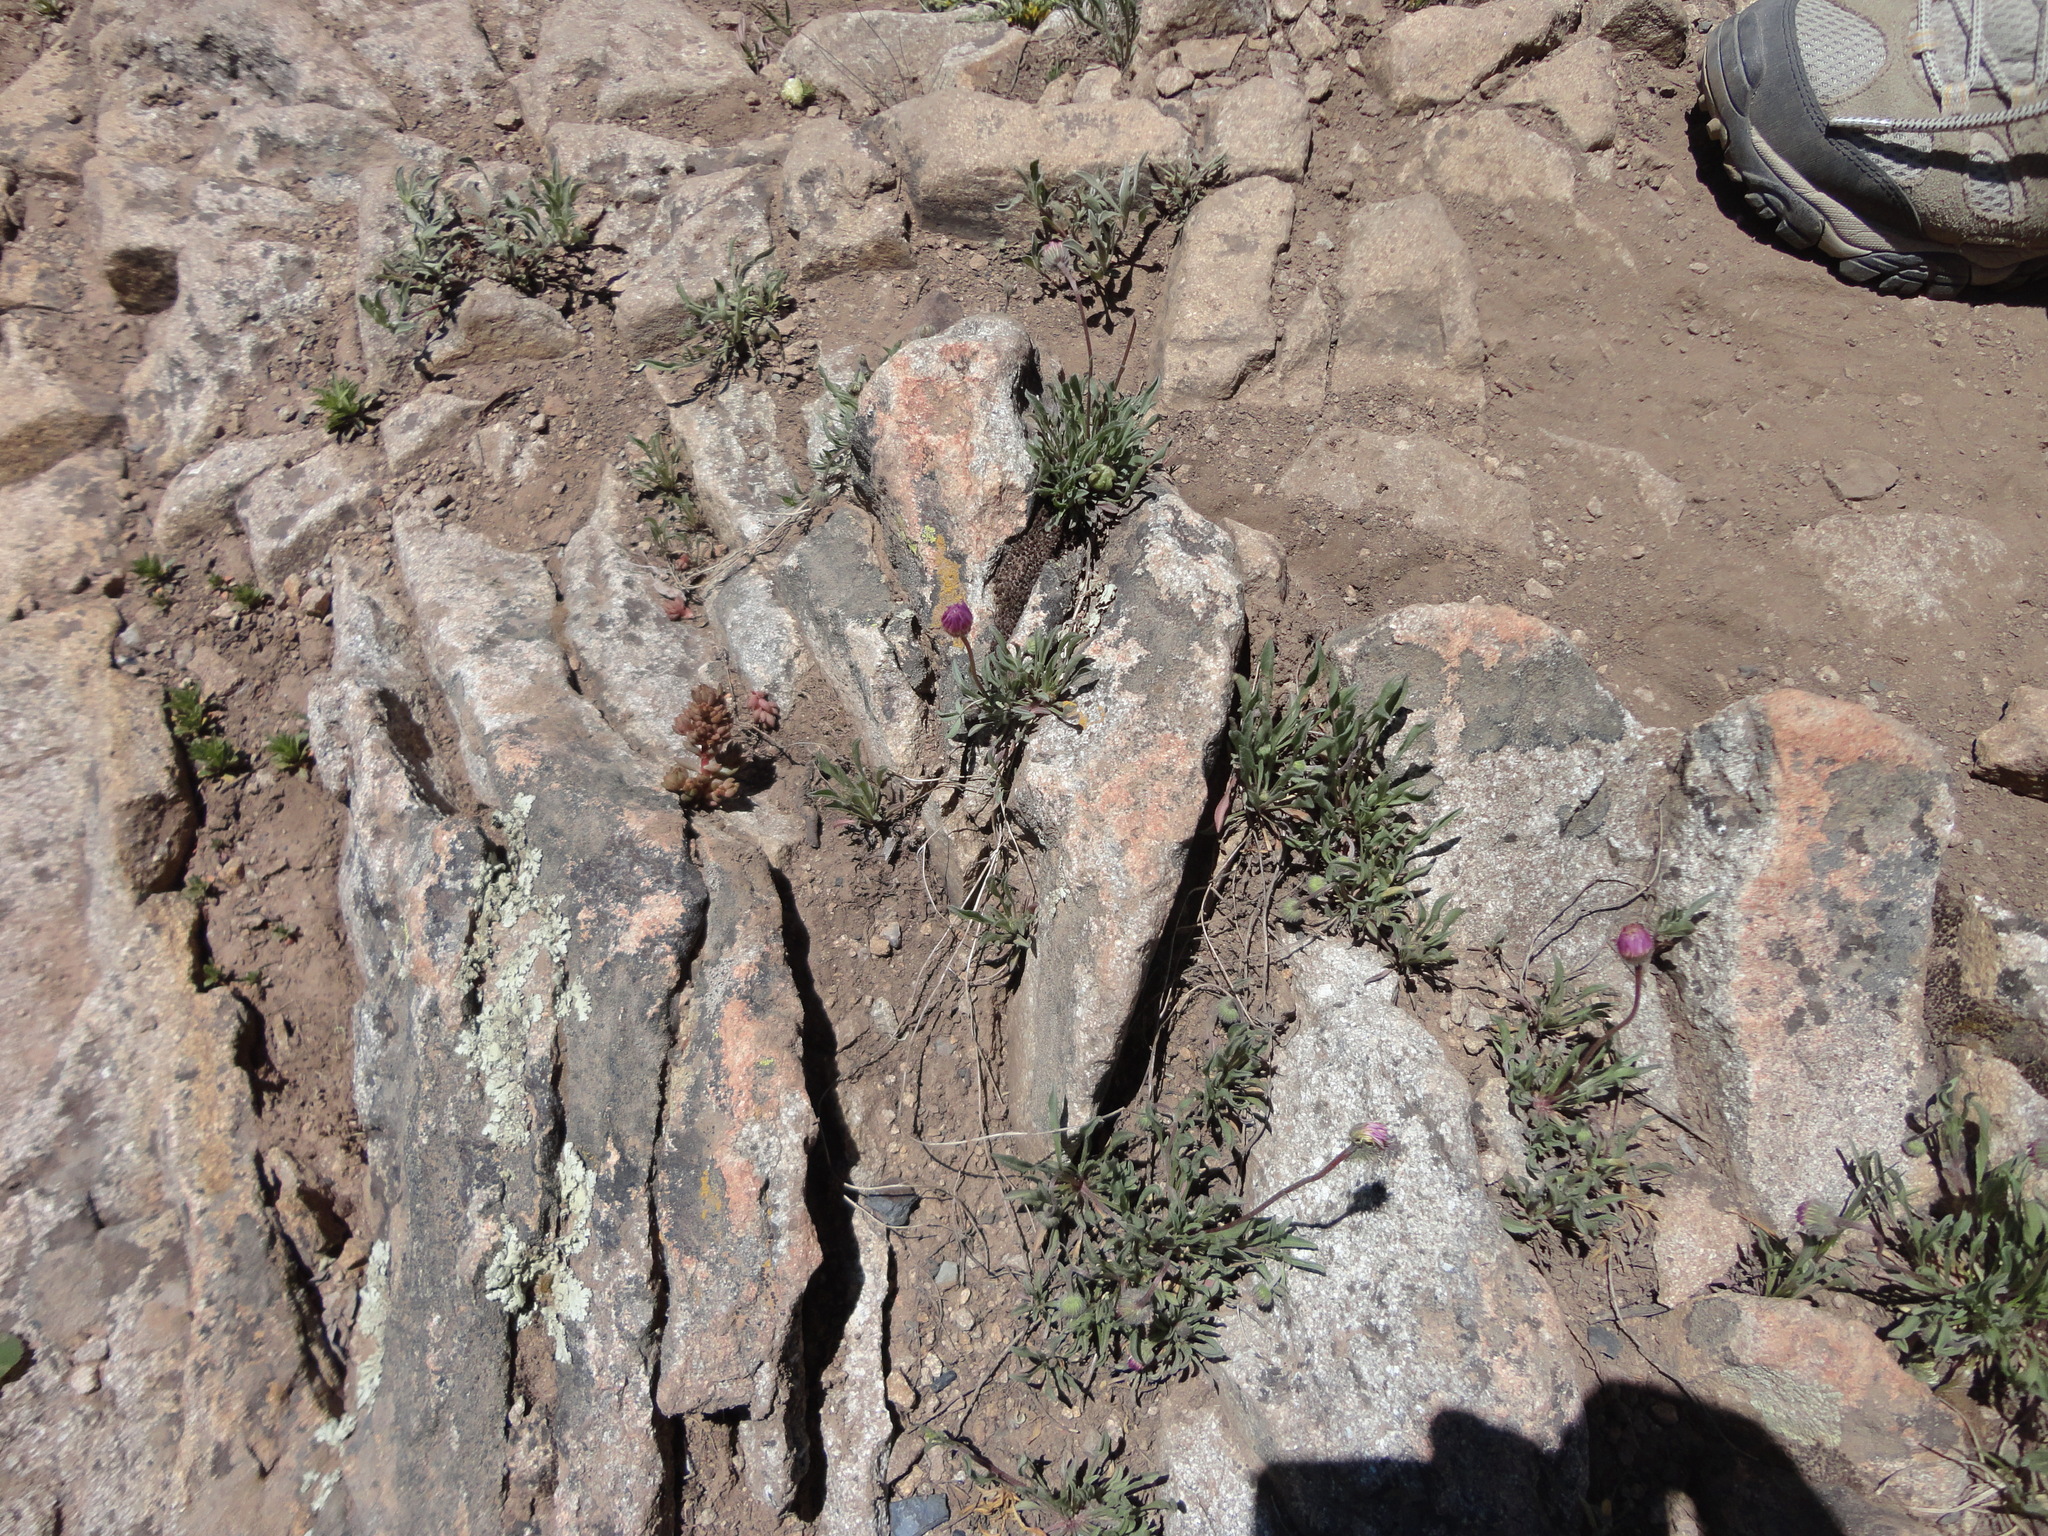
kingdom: Plantae
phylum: Tracheophyta
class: Magnoliopsida
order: Asterales
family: Asteraceae
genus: Erigeron
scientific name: Erigeron flagellaris
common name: Running fleabane
